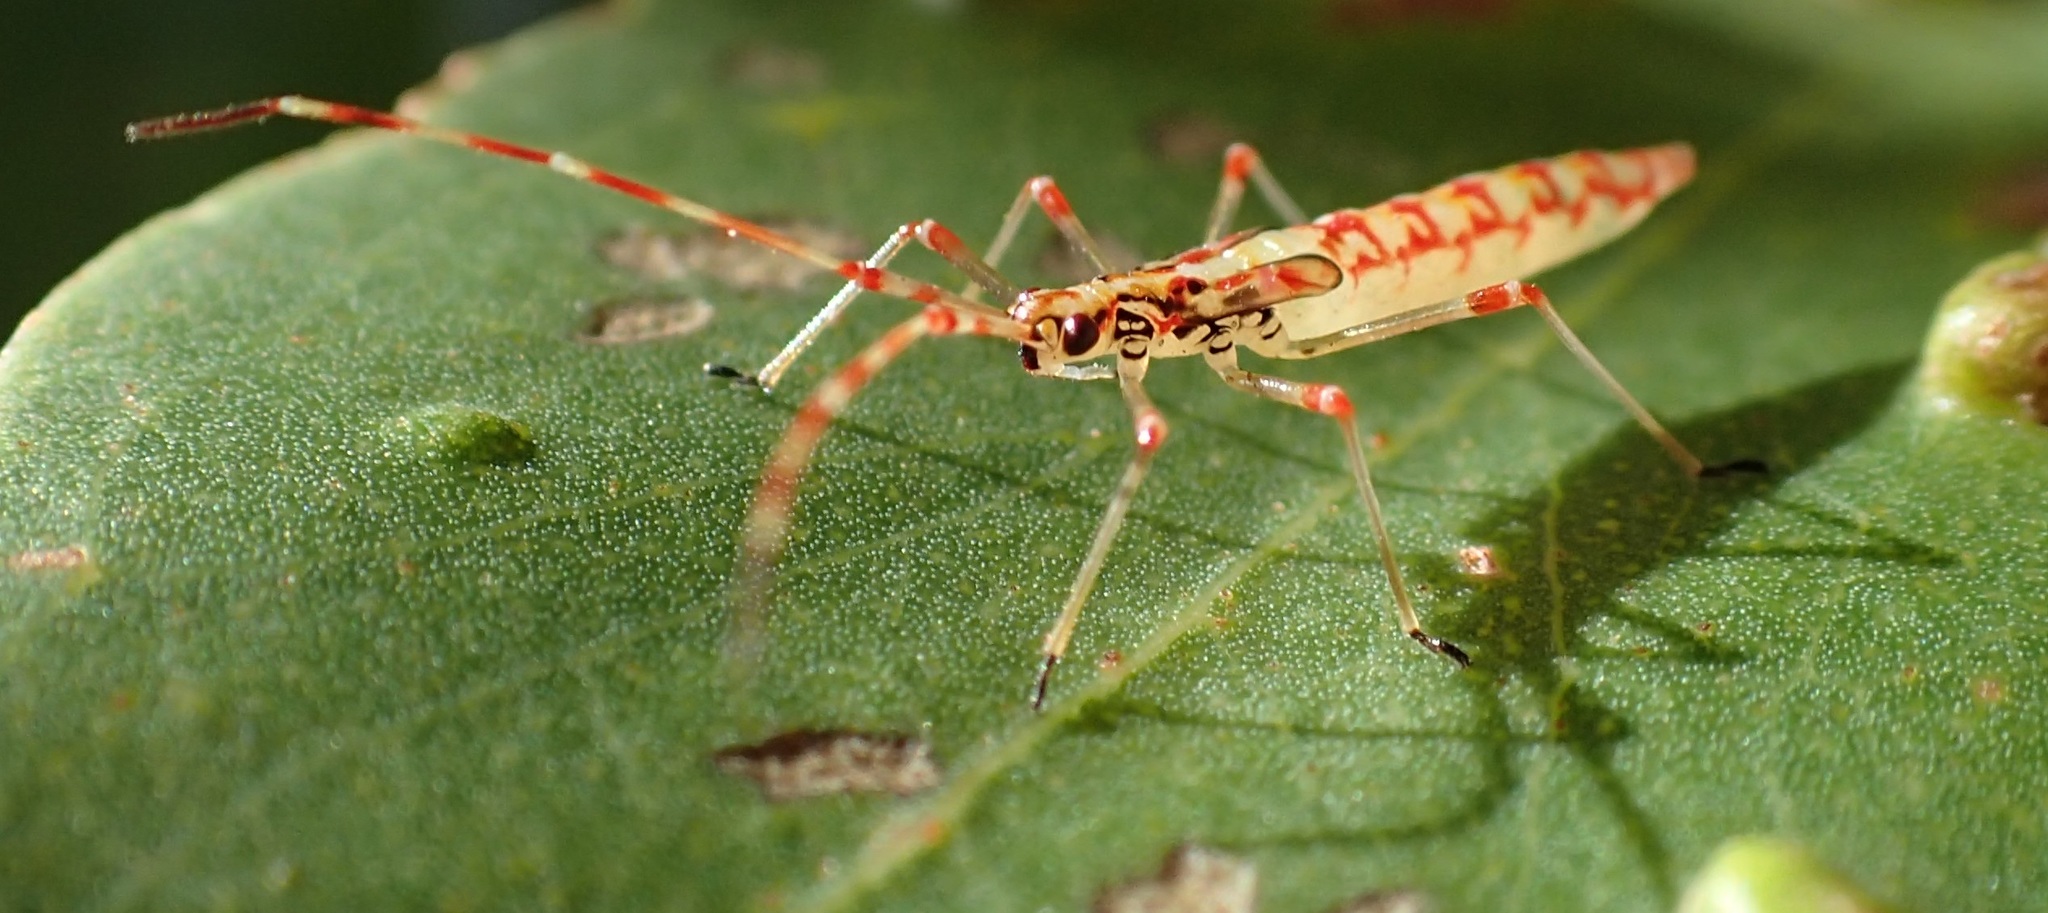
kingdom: Animalia
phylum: Arthropoda
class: Insecta
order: Hemiptera
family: Miridae
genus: Rayieria
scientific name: Rayieria basifer
